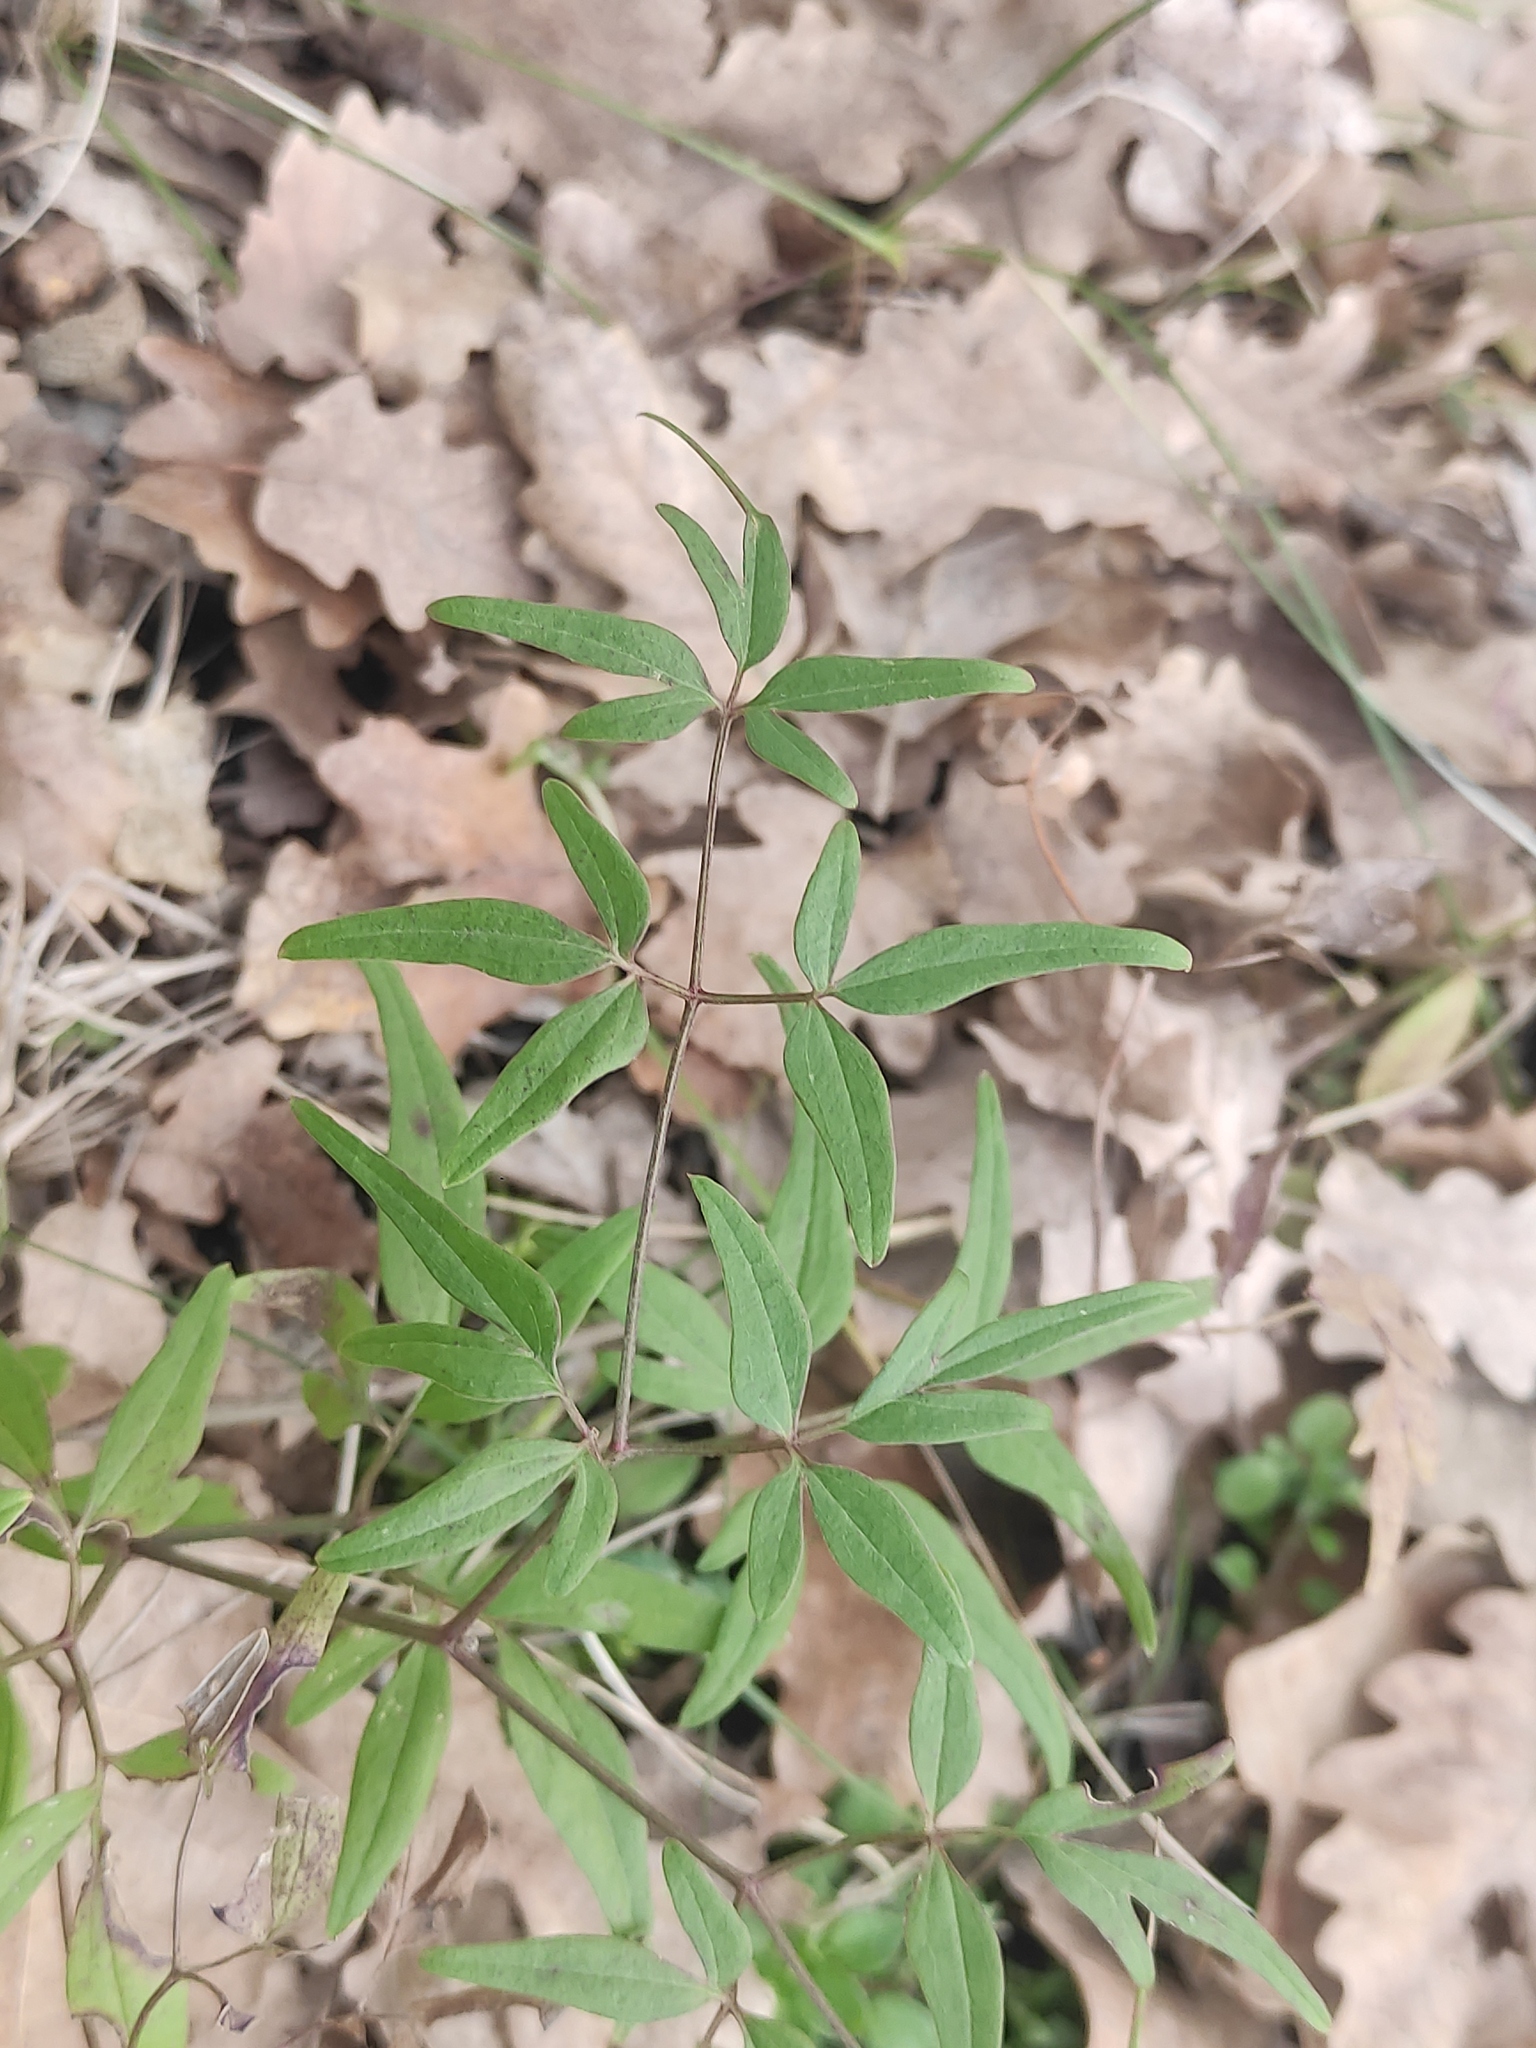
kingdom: Plantae
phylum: Tracheophyta
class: Magnoliopsida
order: Ranunculales
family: Ranunculaceae
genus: Clematis
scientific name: Clematis flammula
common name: Virgin's-bower
